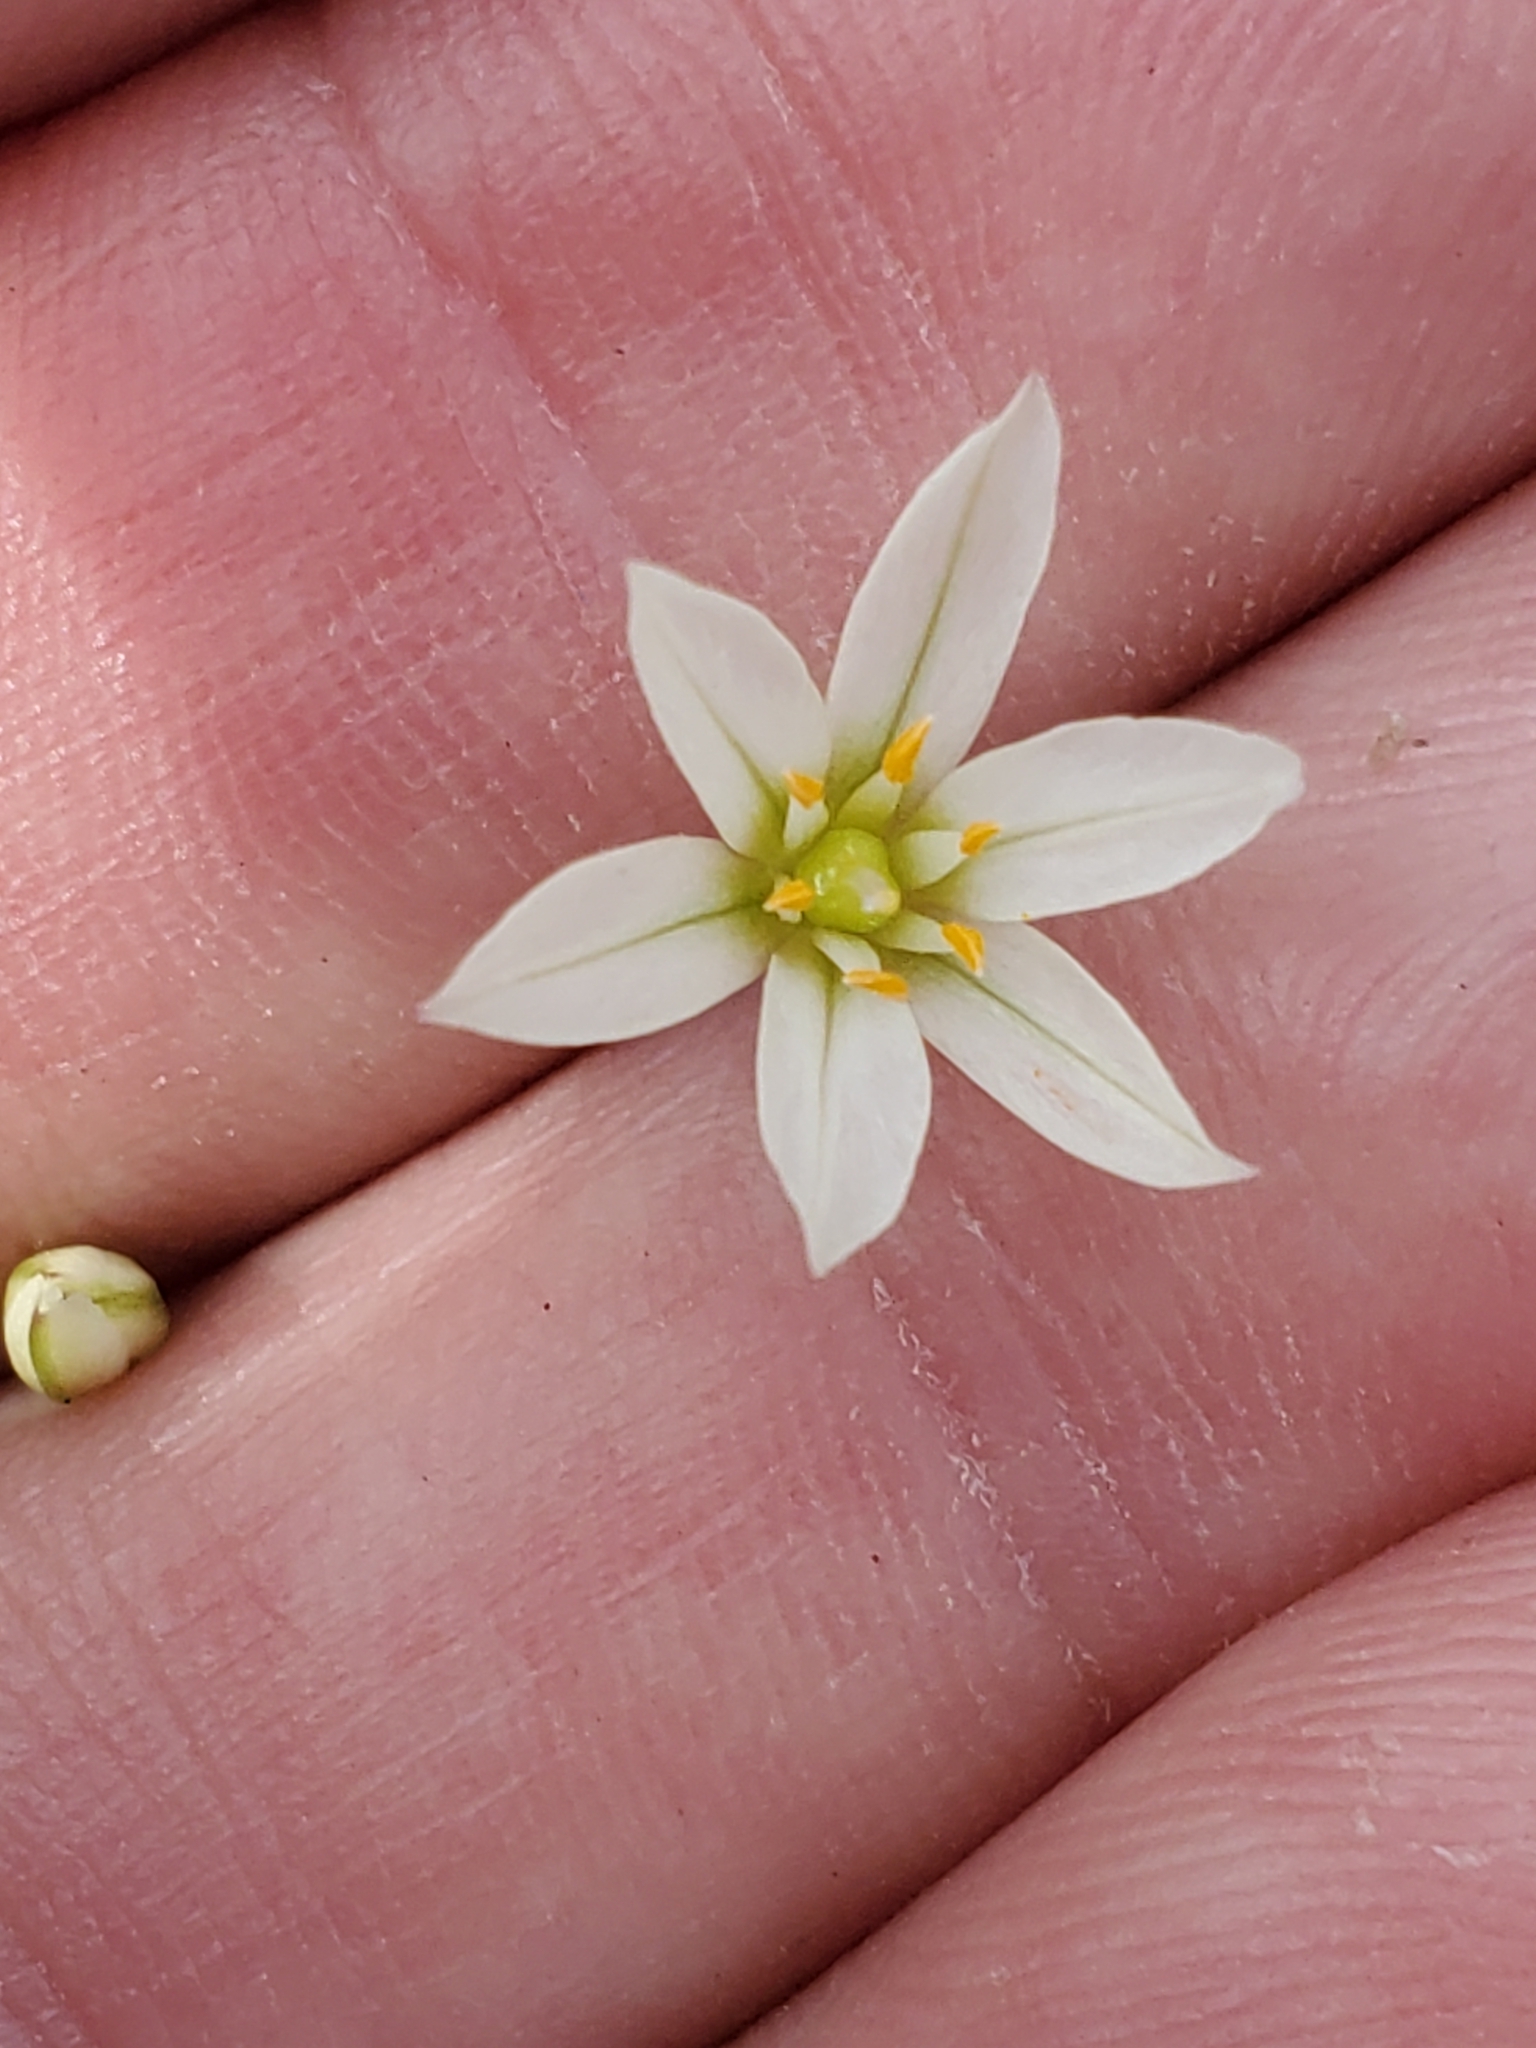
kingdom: Plantae
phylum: Tracheophyta
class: Liliopsida
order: Asparagales
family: Amaryllidaceae
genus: Nothoscordum
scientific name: Nothoscordum bivalve
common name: Crow-poison
